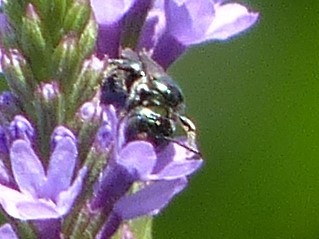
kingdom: Animalia
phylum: Arthropoda
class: Insecta
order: Hymenoptera
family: Apidae
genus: Zadontomerus
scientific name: Zadontomerus
